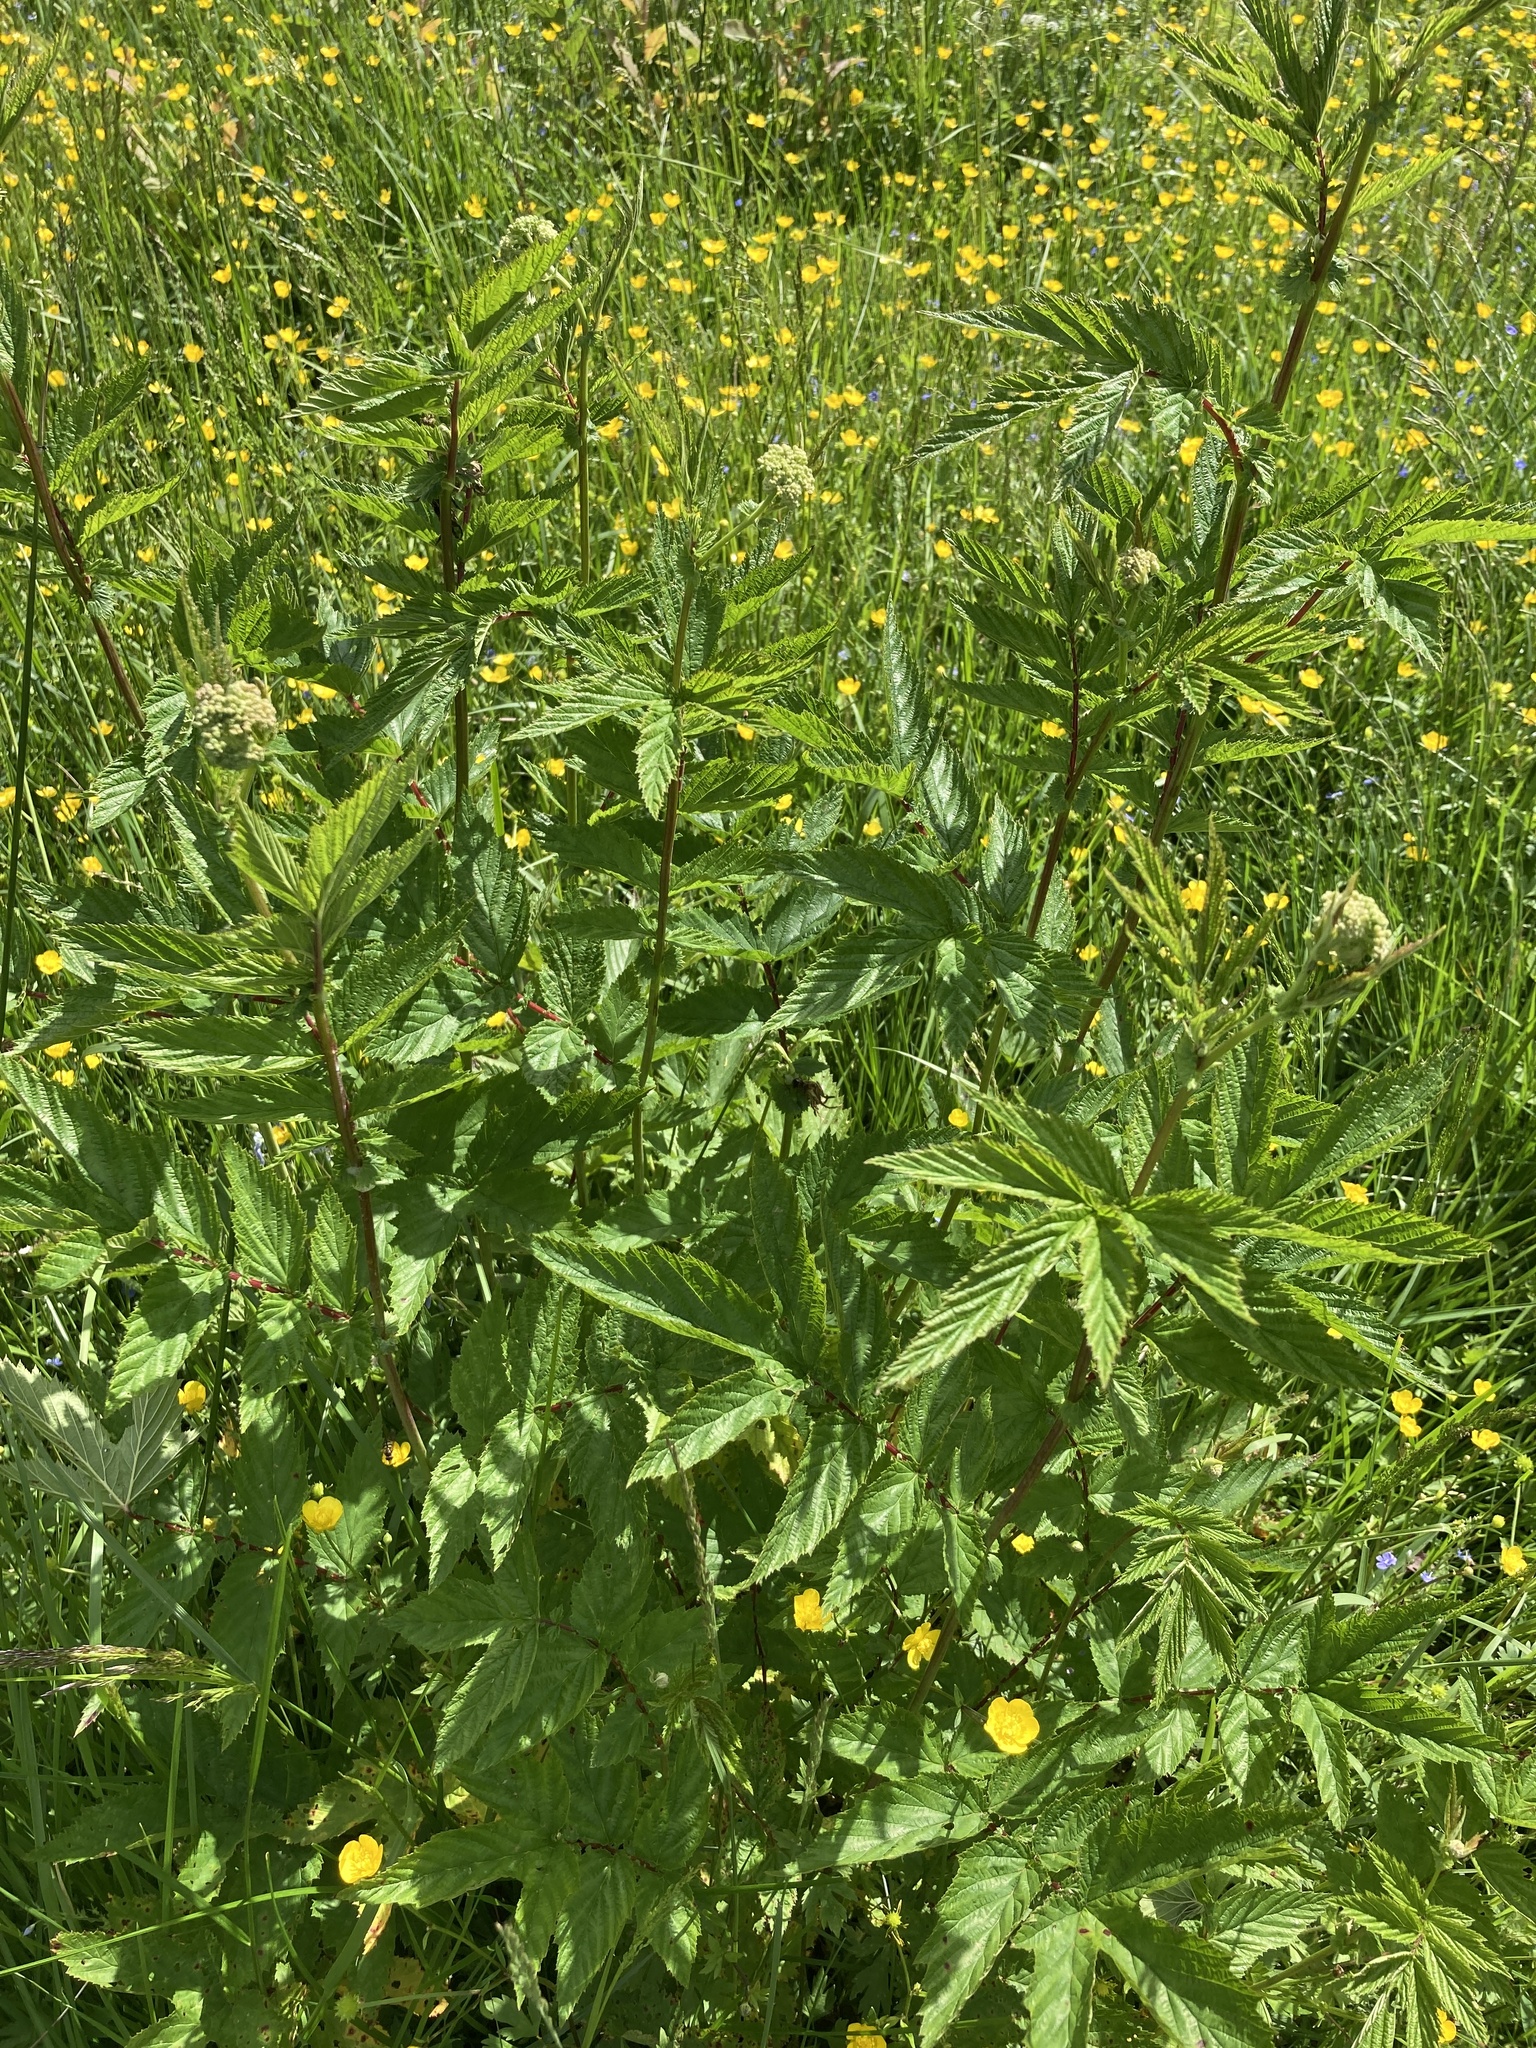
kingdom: Plantae
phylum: Tracheophyta
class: Magnoliopsida
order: Rosales
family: Rosaceae
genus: Filipendula
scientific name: Filipendula ulmaria
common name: Meadowsweet
